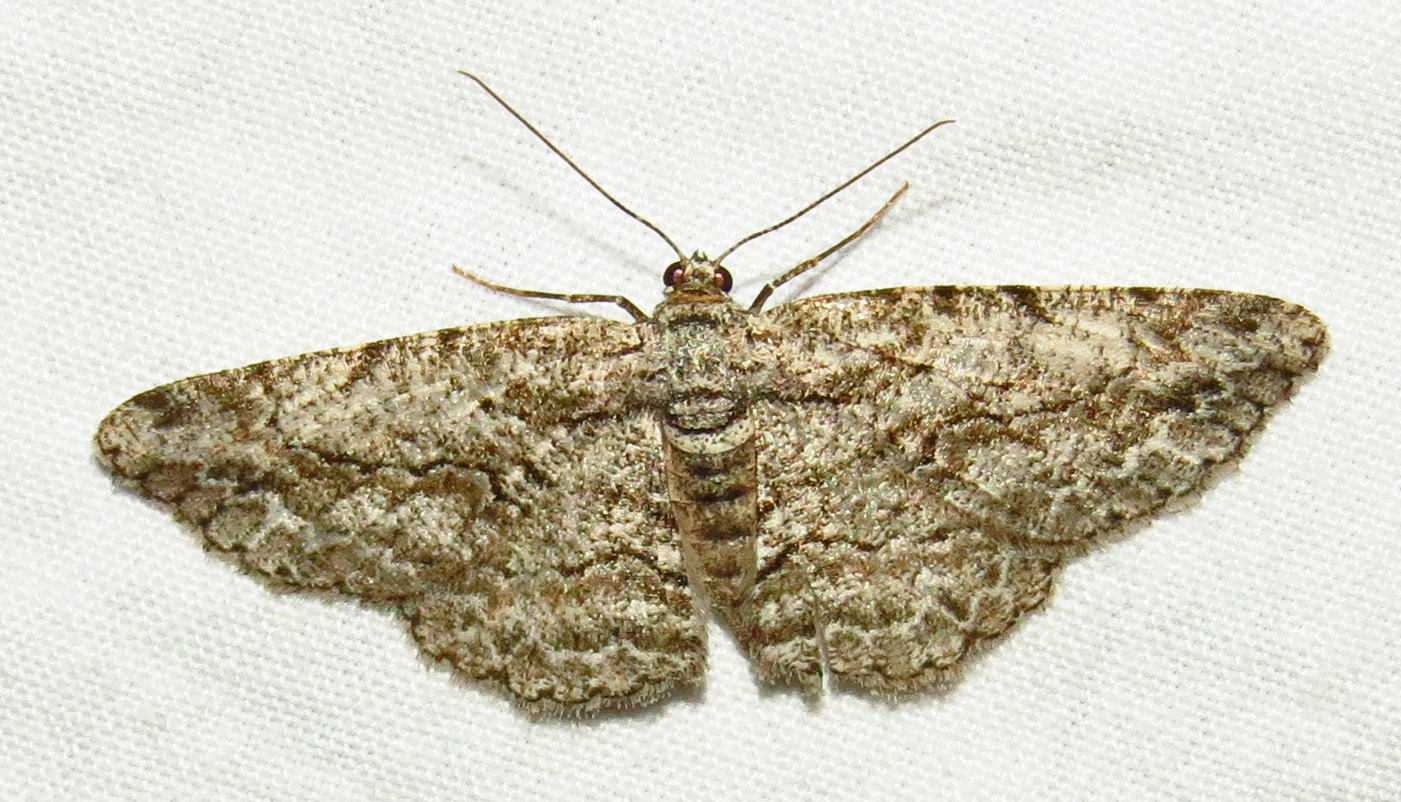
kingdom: Animalia
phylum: Arthropoda
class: Insecta
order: Lepidoptera
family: Geometridae
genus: Anavitrinella
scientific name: Anavitrinella pampinaria
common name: Common gray
